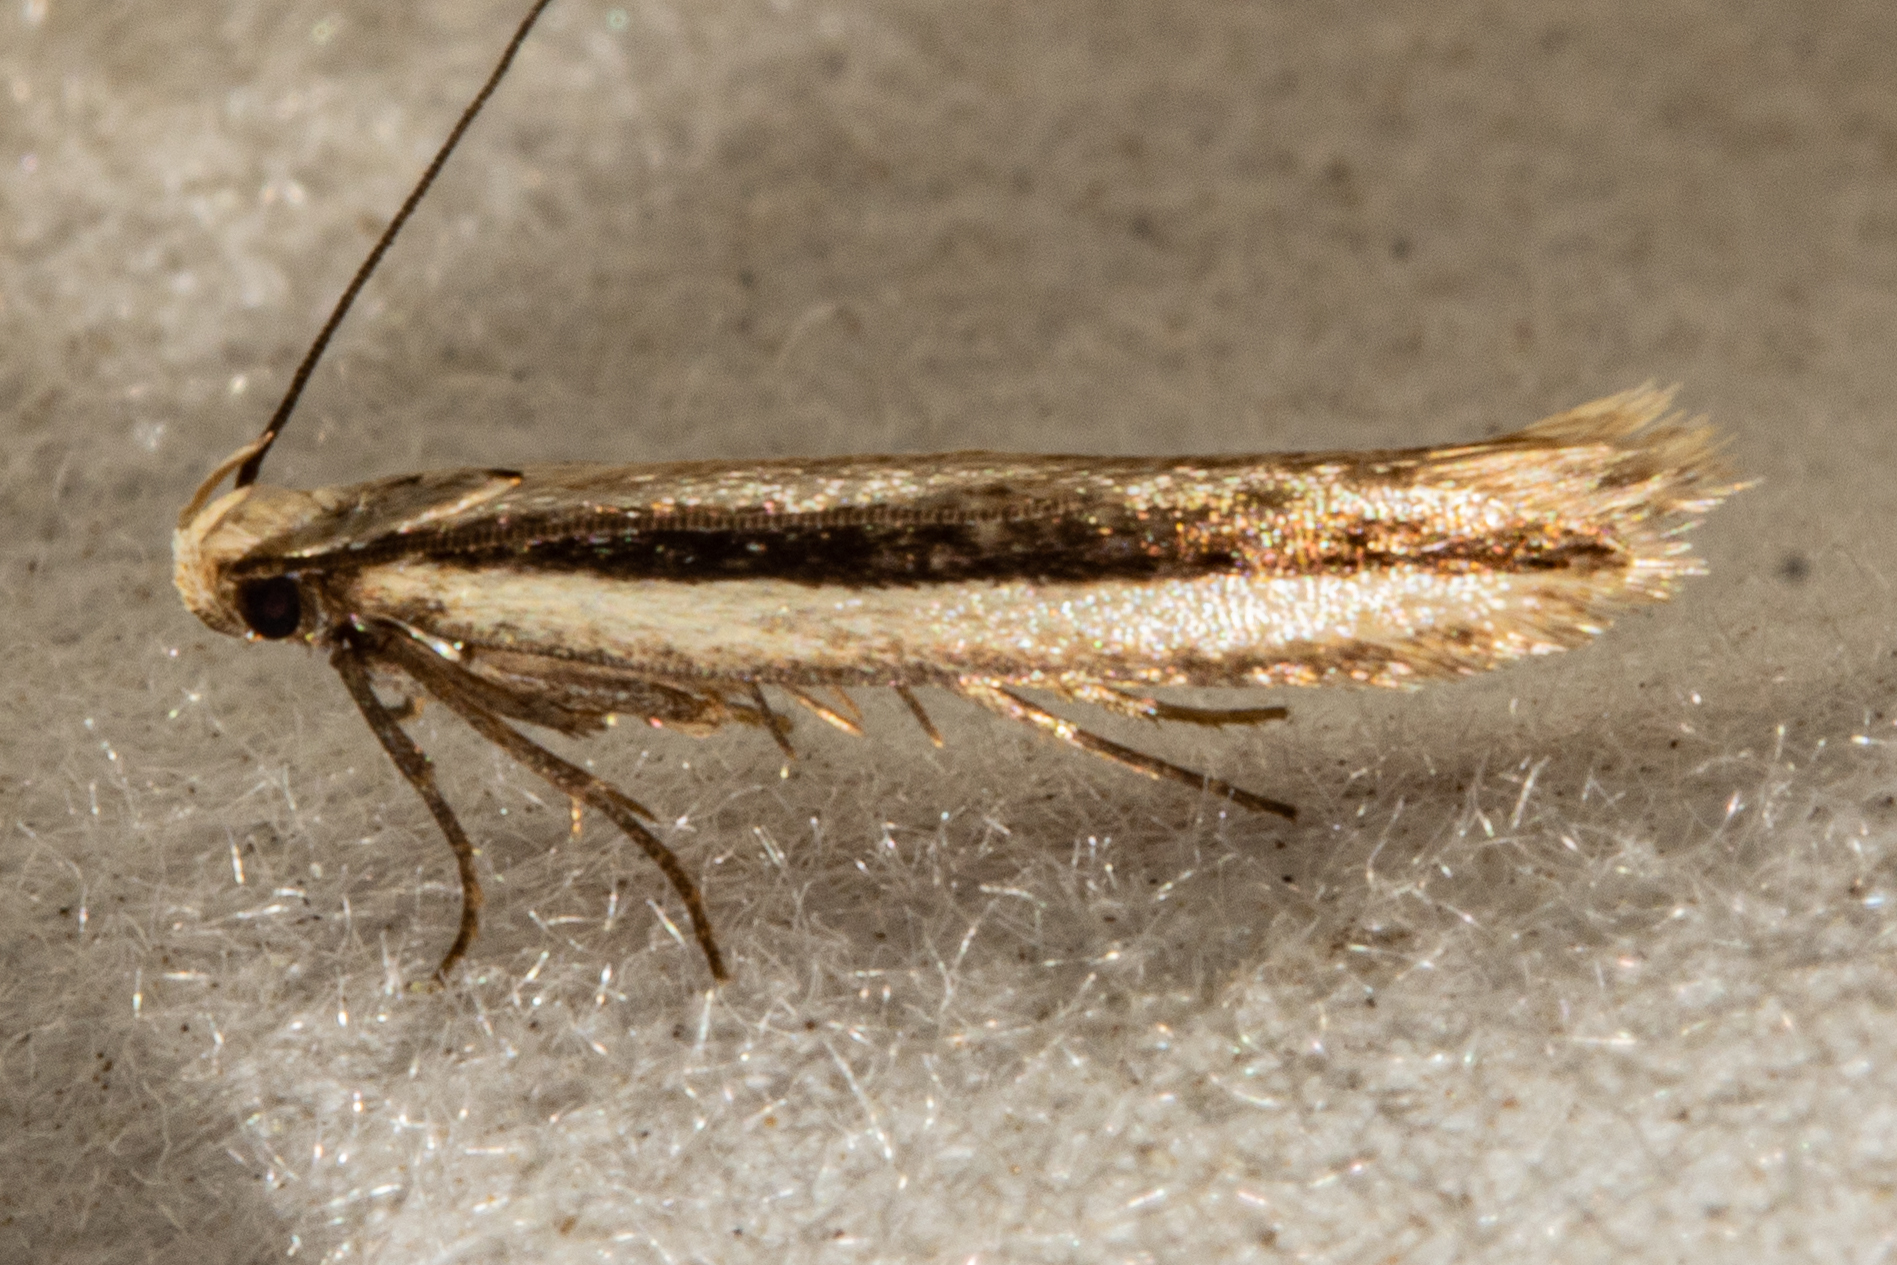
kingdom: Animalia
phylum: Arthropoda
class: Insecta
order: Lepidoptera
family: Gelechiidae
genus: Kiwaia
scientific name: Kiwaia monophragma
